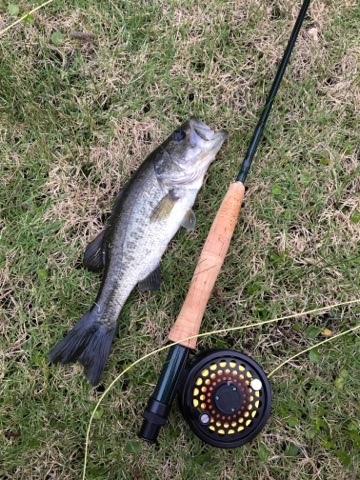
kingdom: Animalia
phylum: Chordata
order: Perciformes
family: Centrarchidae
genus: Micropterus
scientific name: Micropterus
